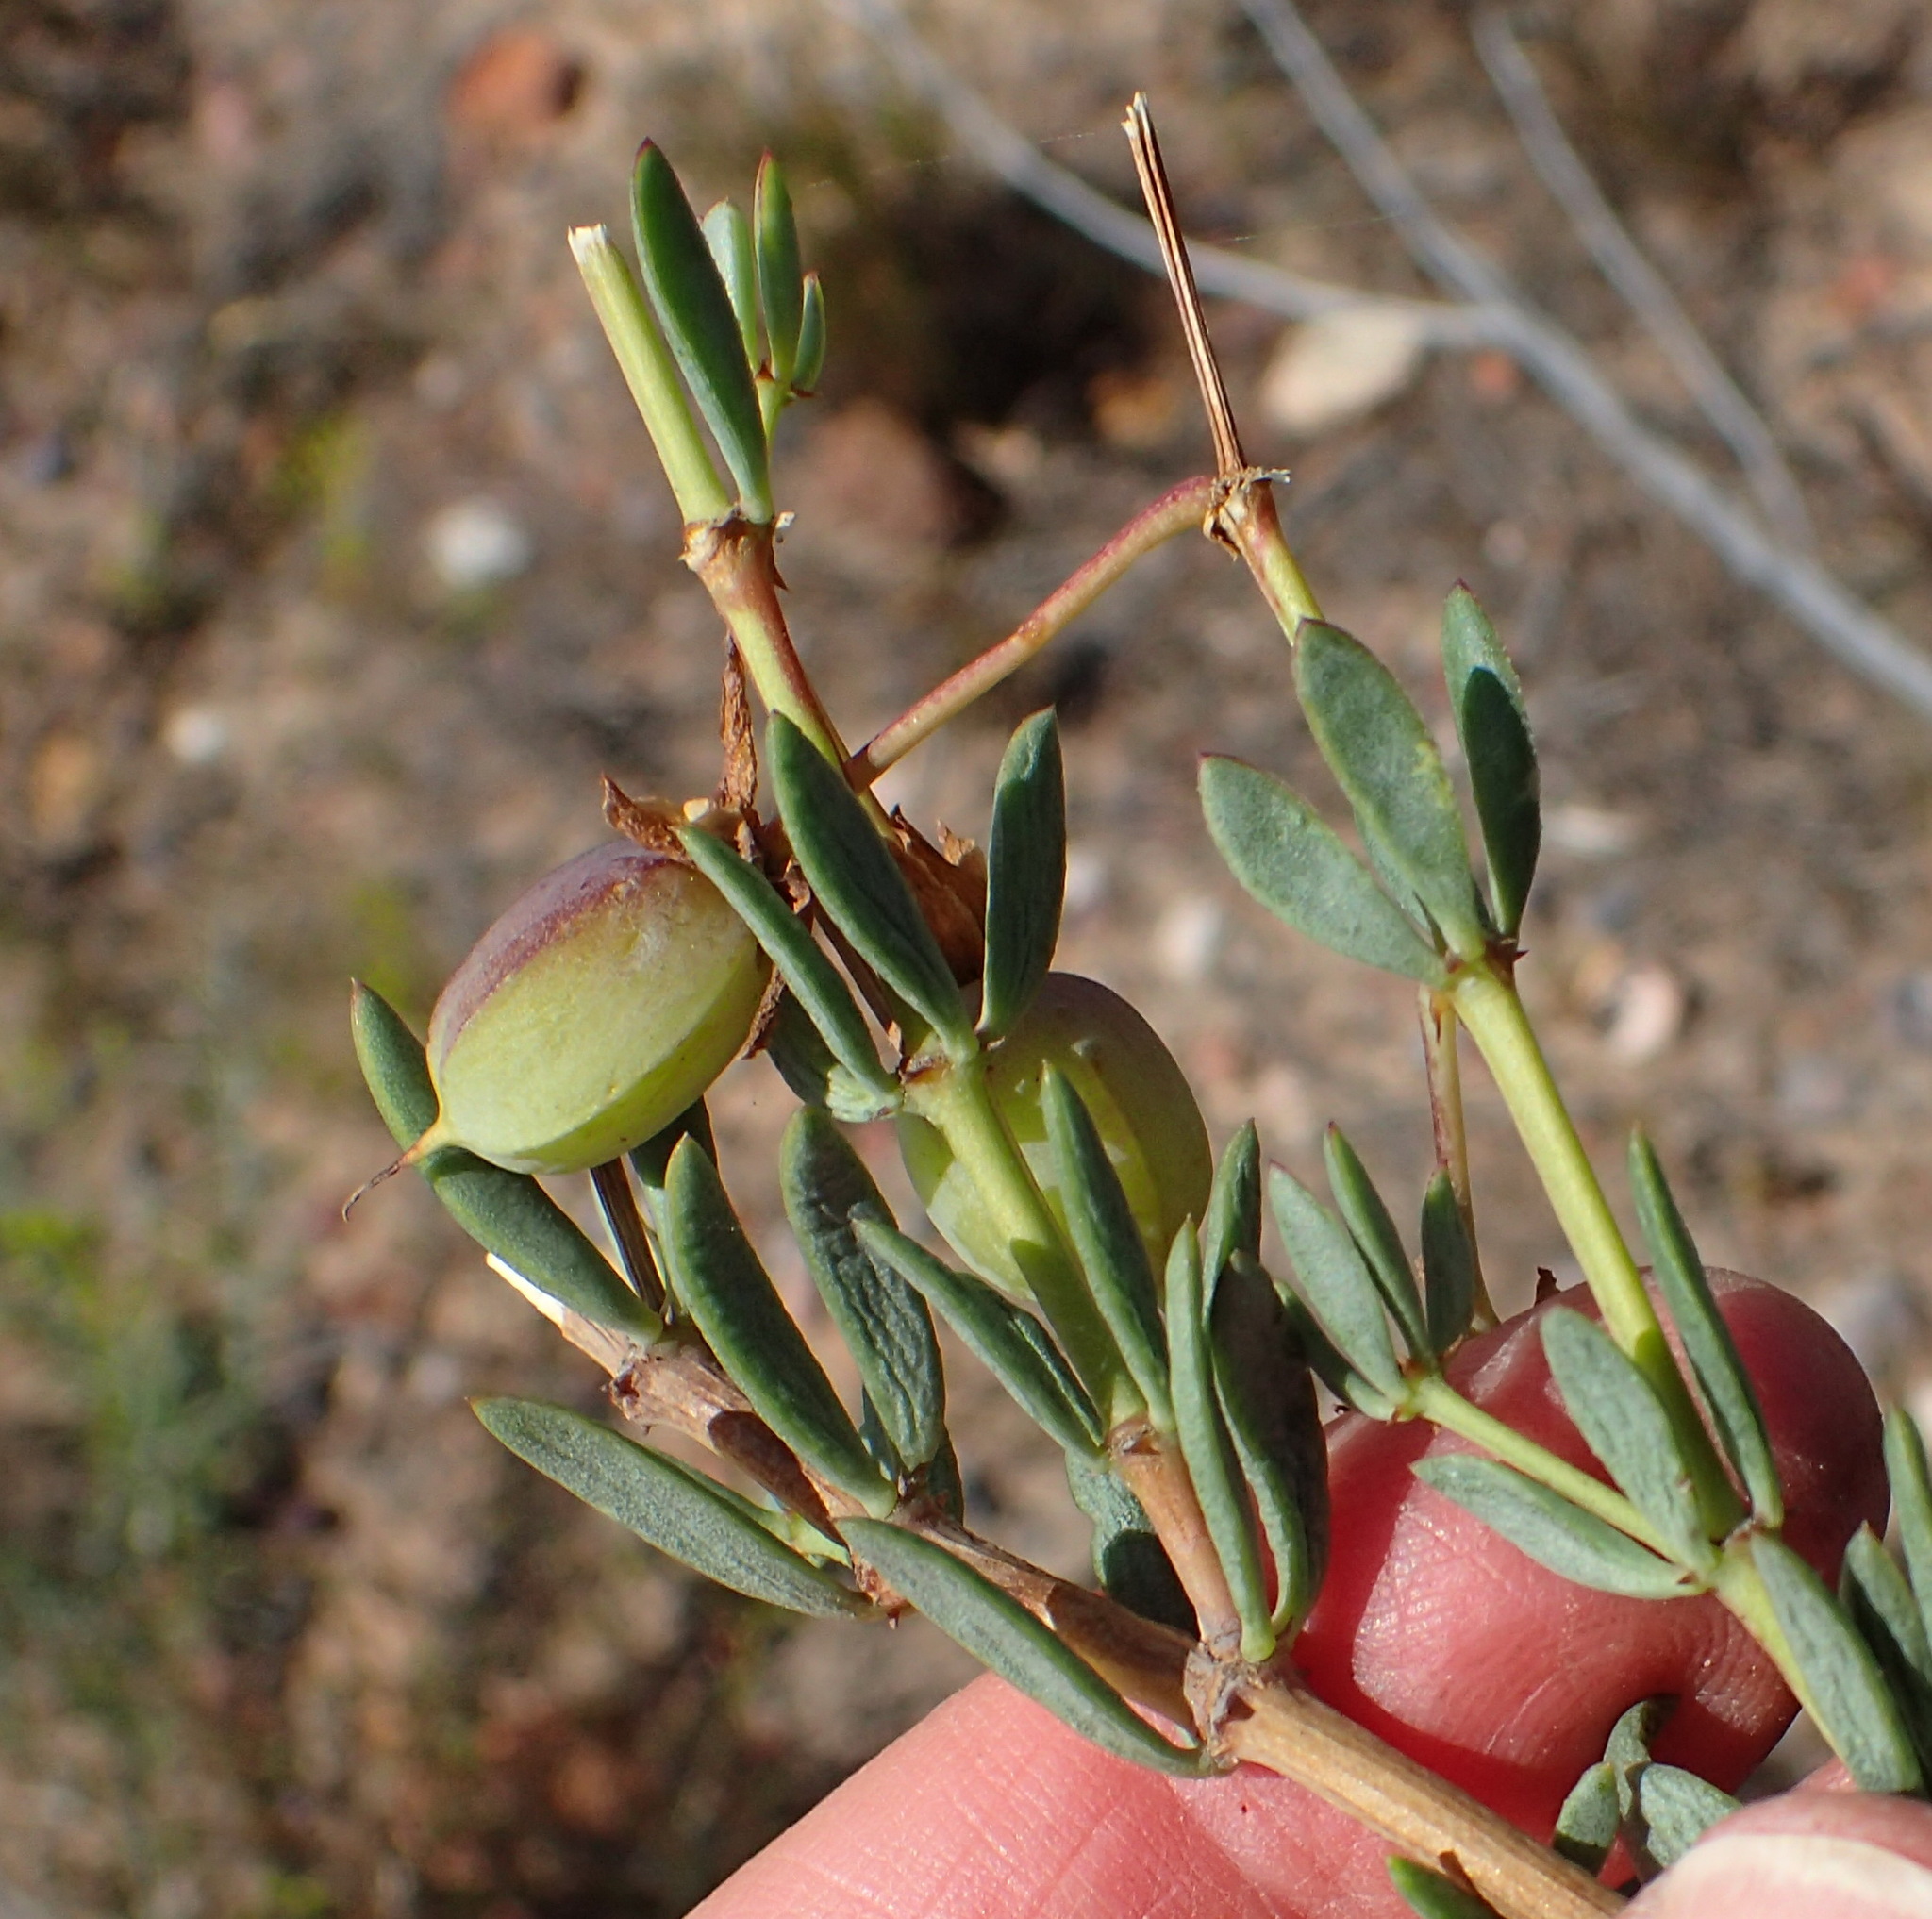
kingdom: Plantae
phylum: Tracheophyta
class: Magnoliopsida
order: Zygophyllales
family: Zygophyllaceae
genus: Roepera
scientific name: Roepera fulva
